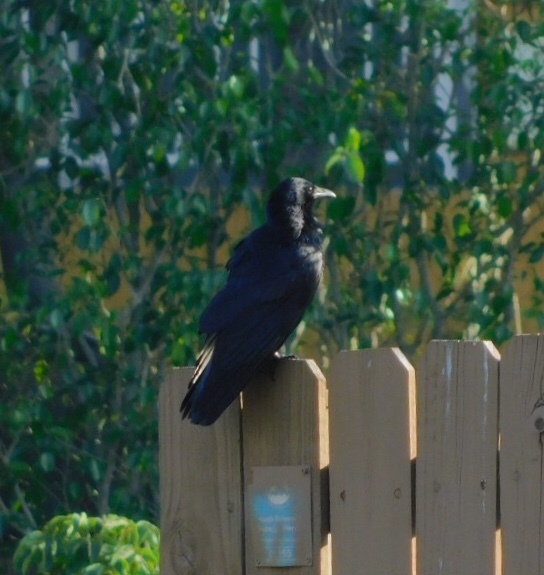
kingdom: Animalia
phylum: Chordata
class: Aves
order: Passeriformes
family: Corvidae
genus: Corvus
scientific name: Corvus ossifragus
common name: Fish crow
